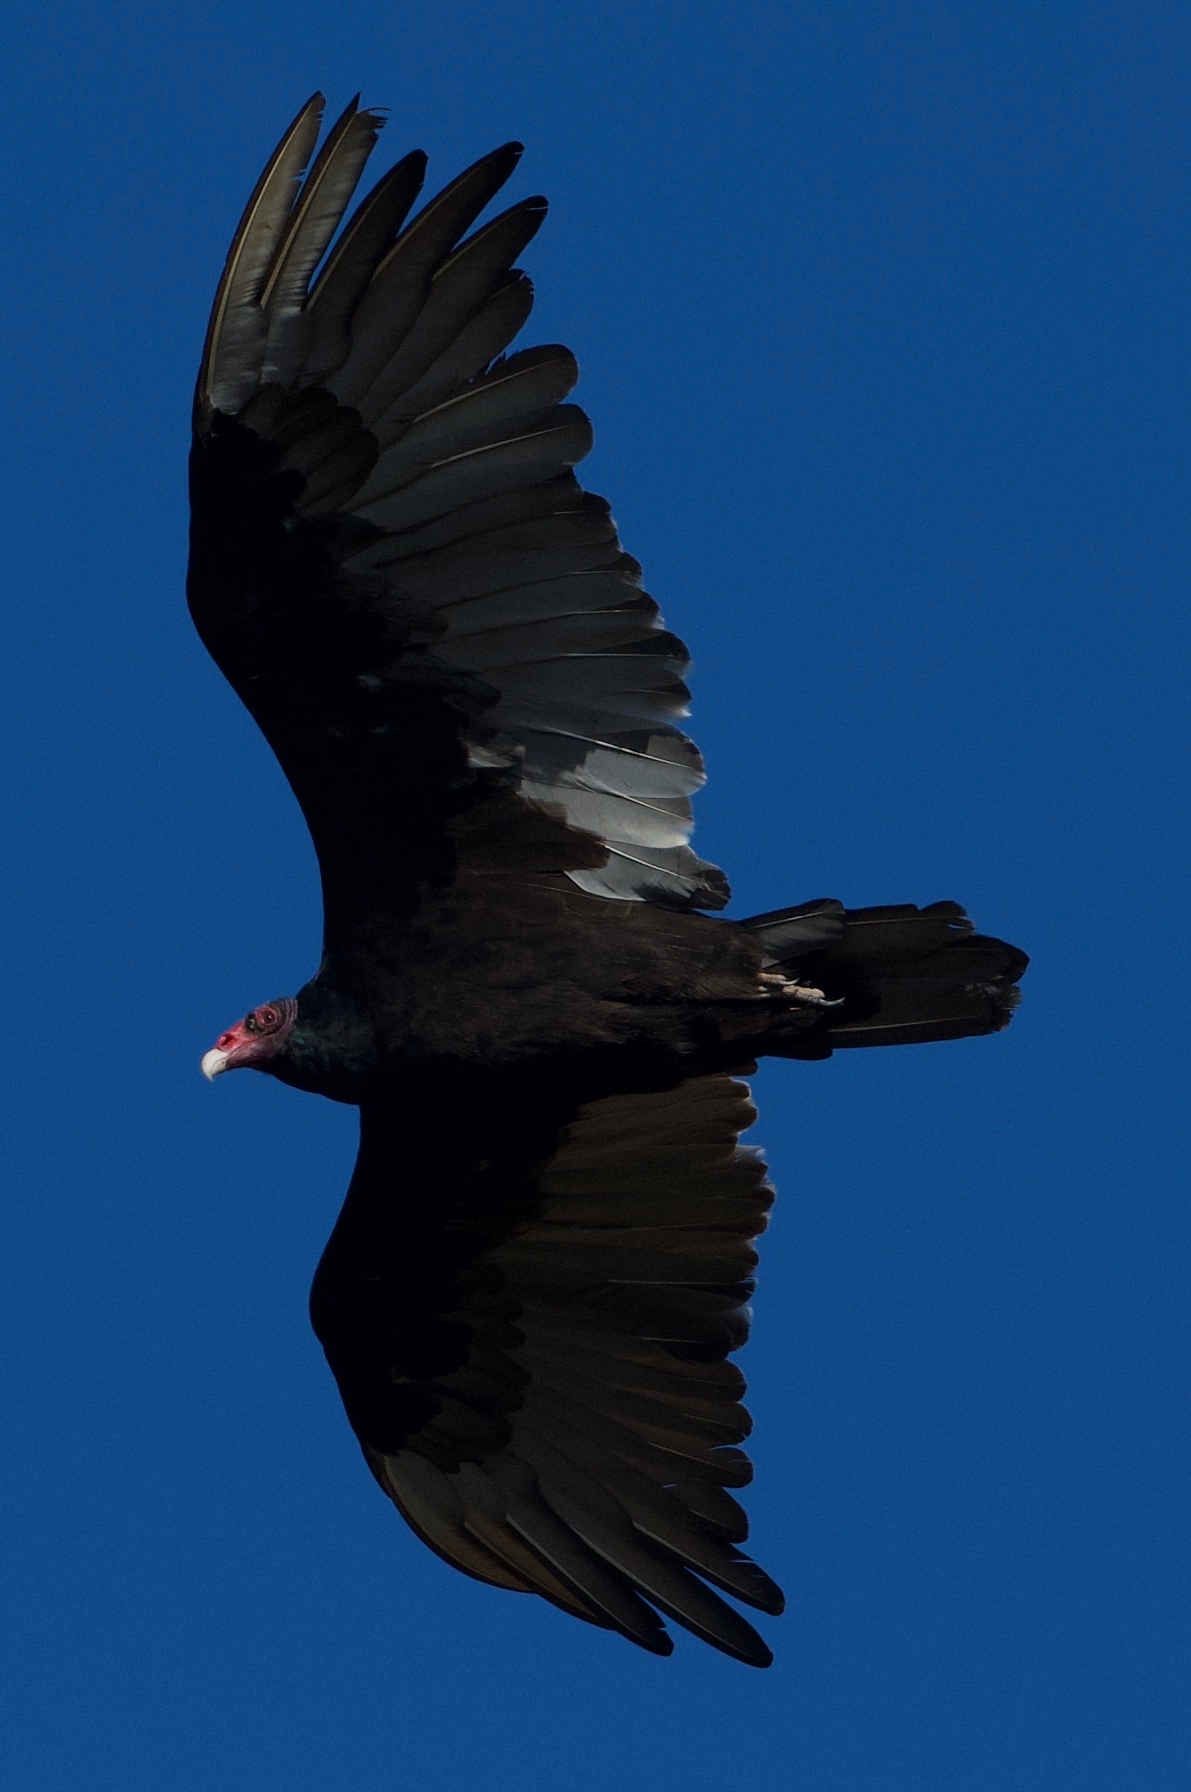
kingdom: Animalia
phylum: Chordata
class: Aves
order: Accipitriformes
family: Cathartidae
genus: Cathartes
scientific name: Cathartes aura
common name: Turkey vulture
